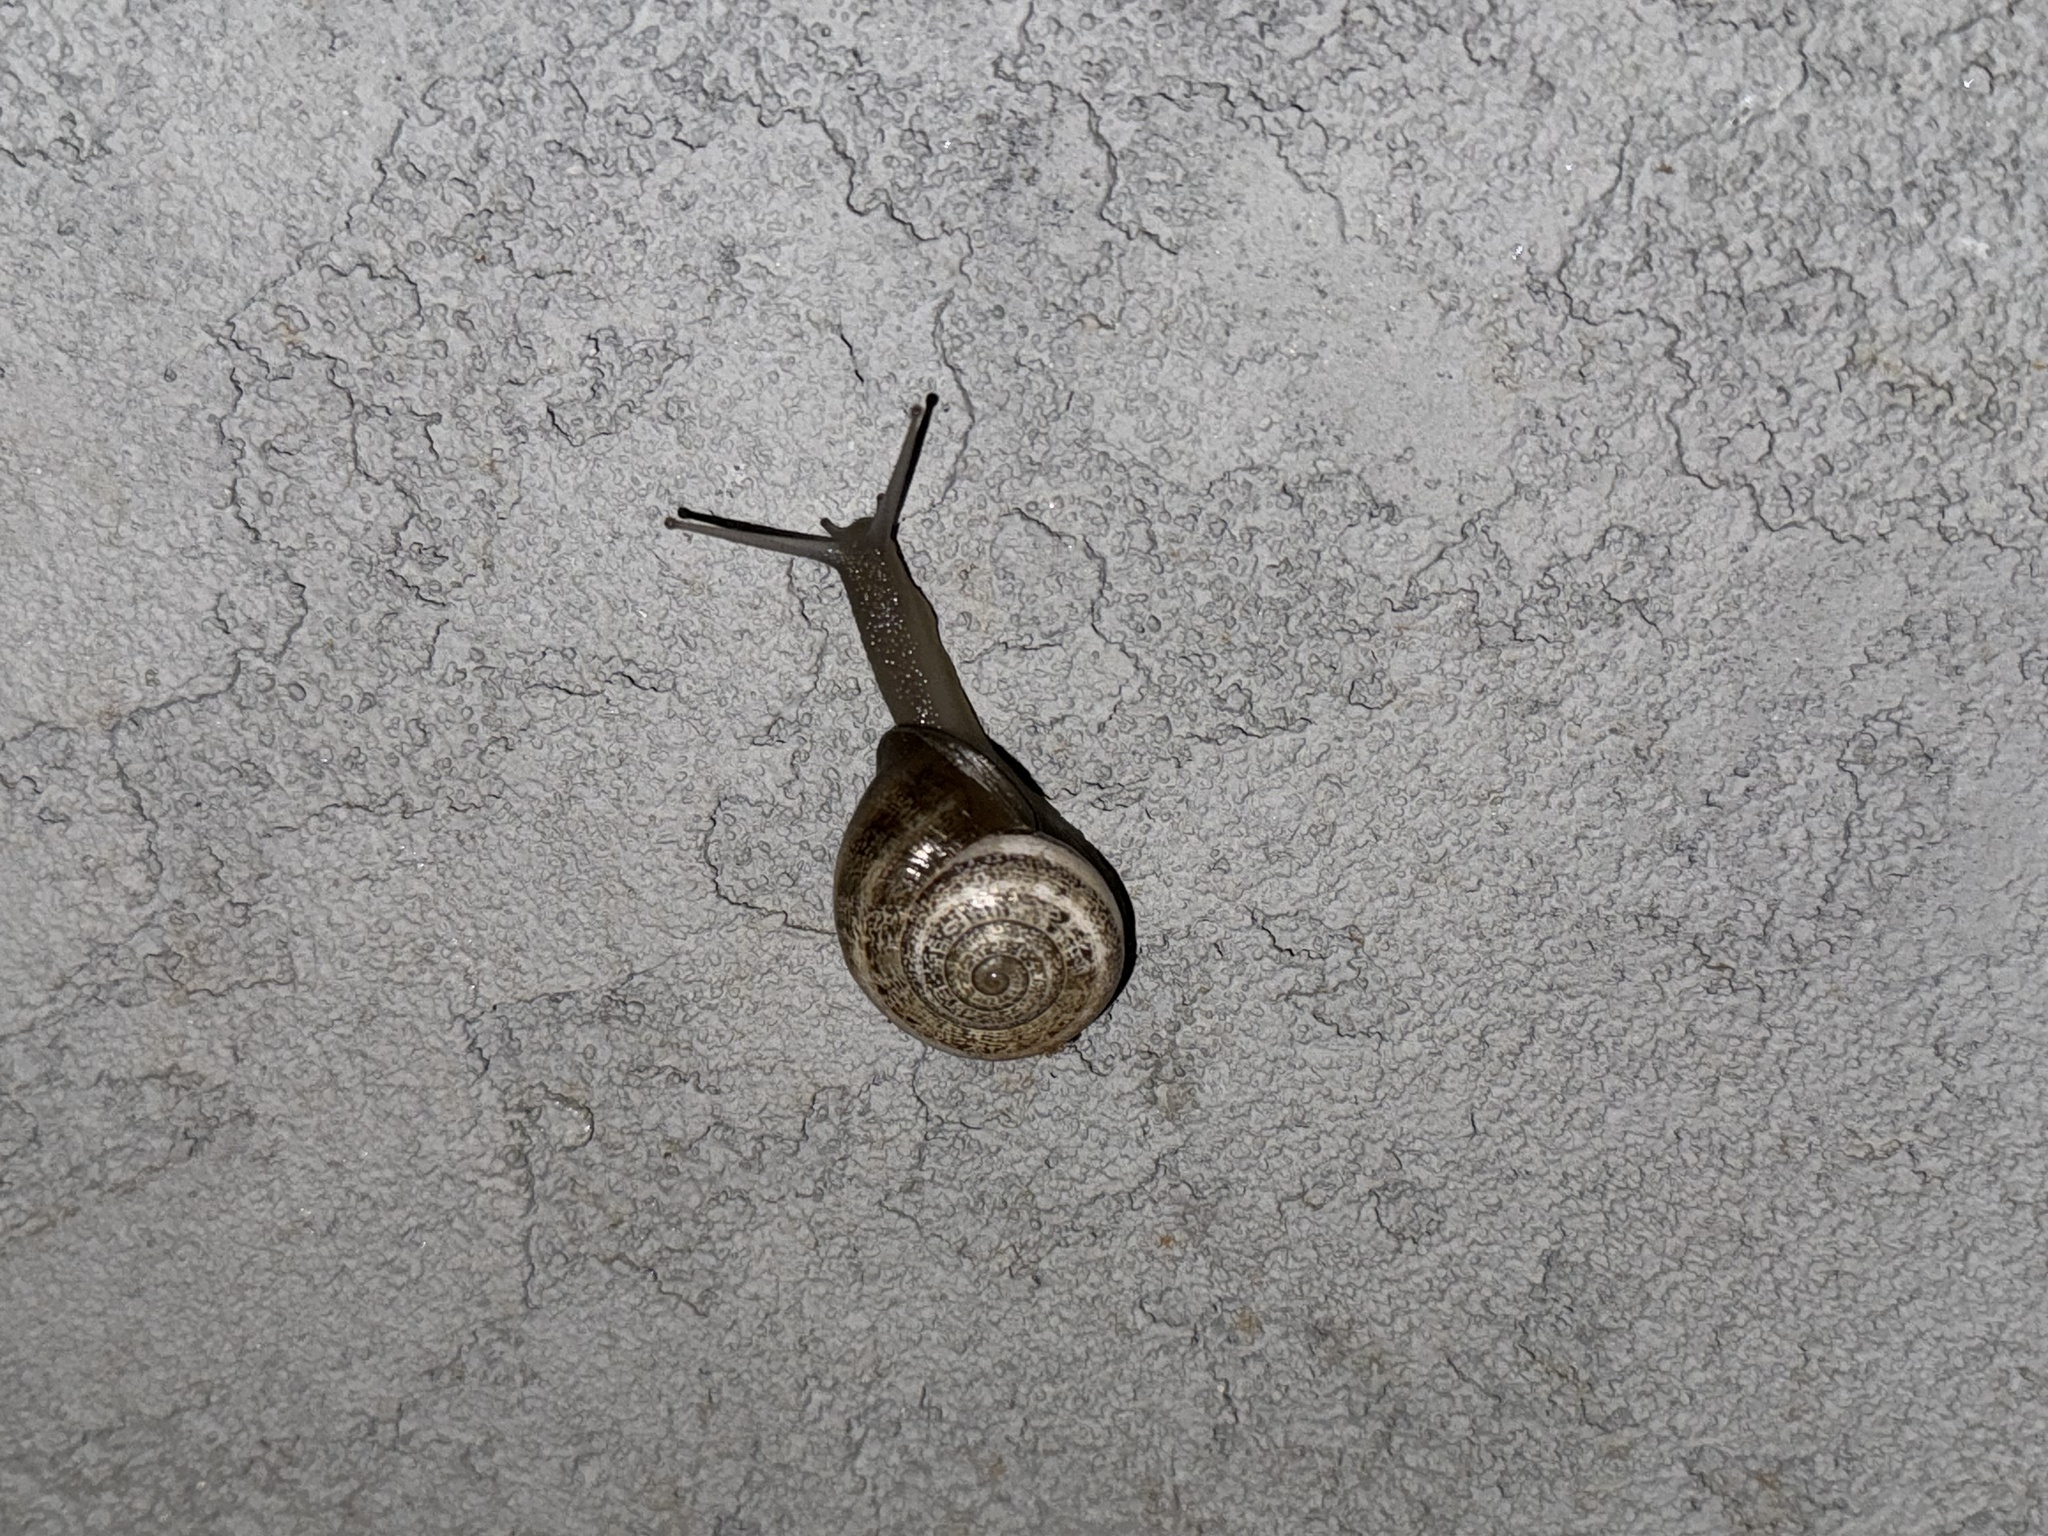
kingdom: Animalia
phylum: Mollusca
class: Gastropoda
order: Stylommatophora
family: Helicidae
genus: Otala
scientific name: Otala lactea
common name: Milk snail
